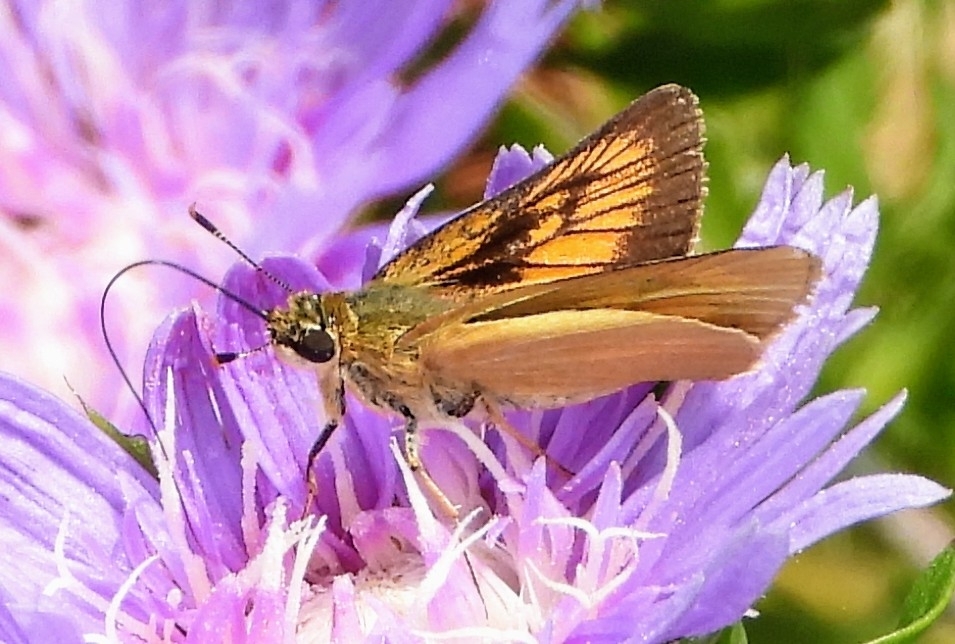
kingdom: Animalia
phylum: Arthropoda
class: Insecta
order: Lepidoptera
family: Hesperiidae
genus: Atrytone
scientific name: Atrytone delaware
